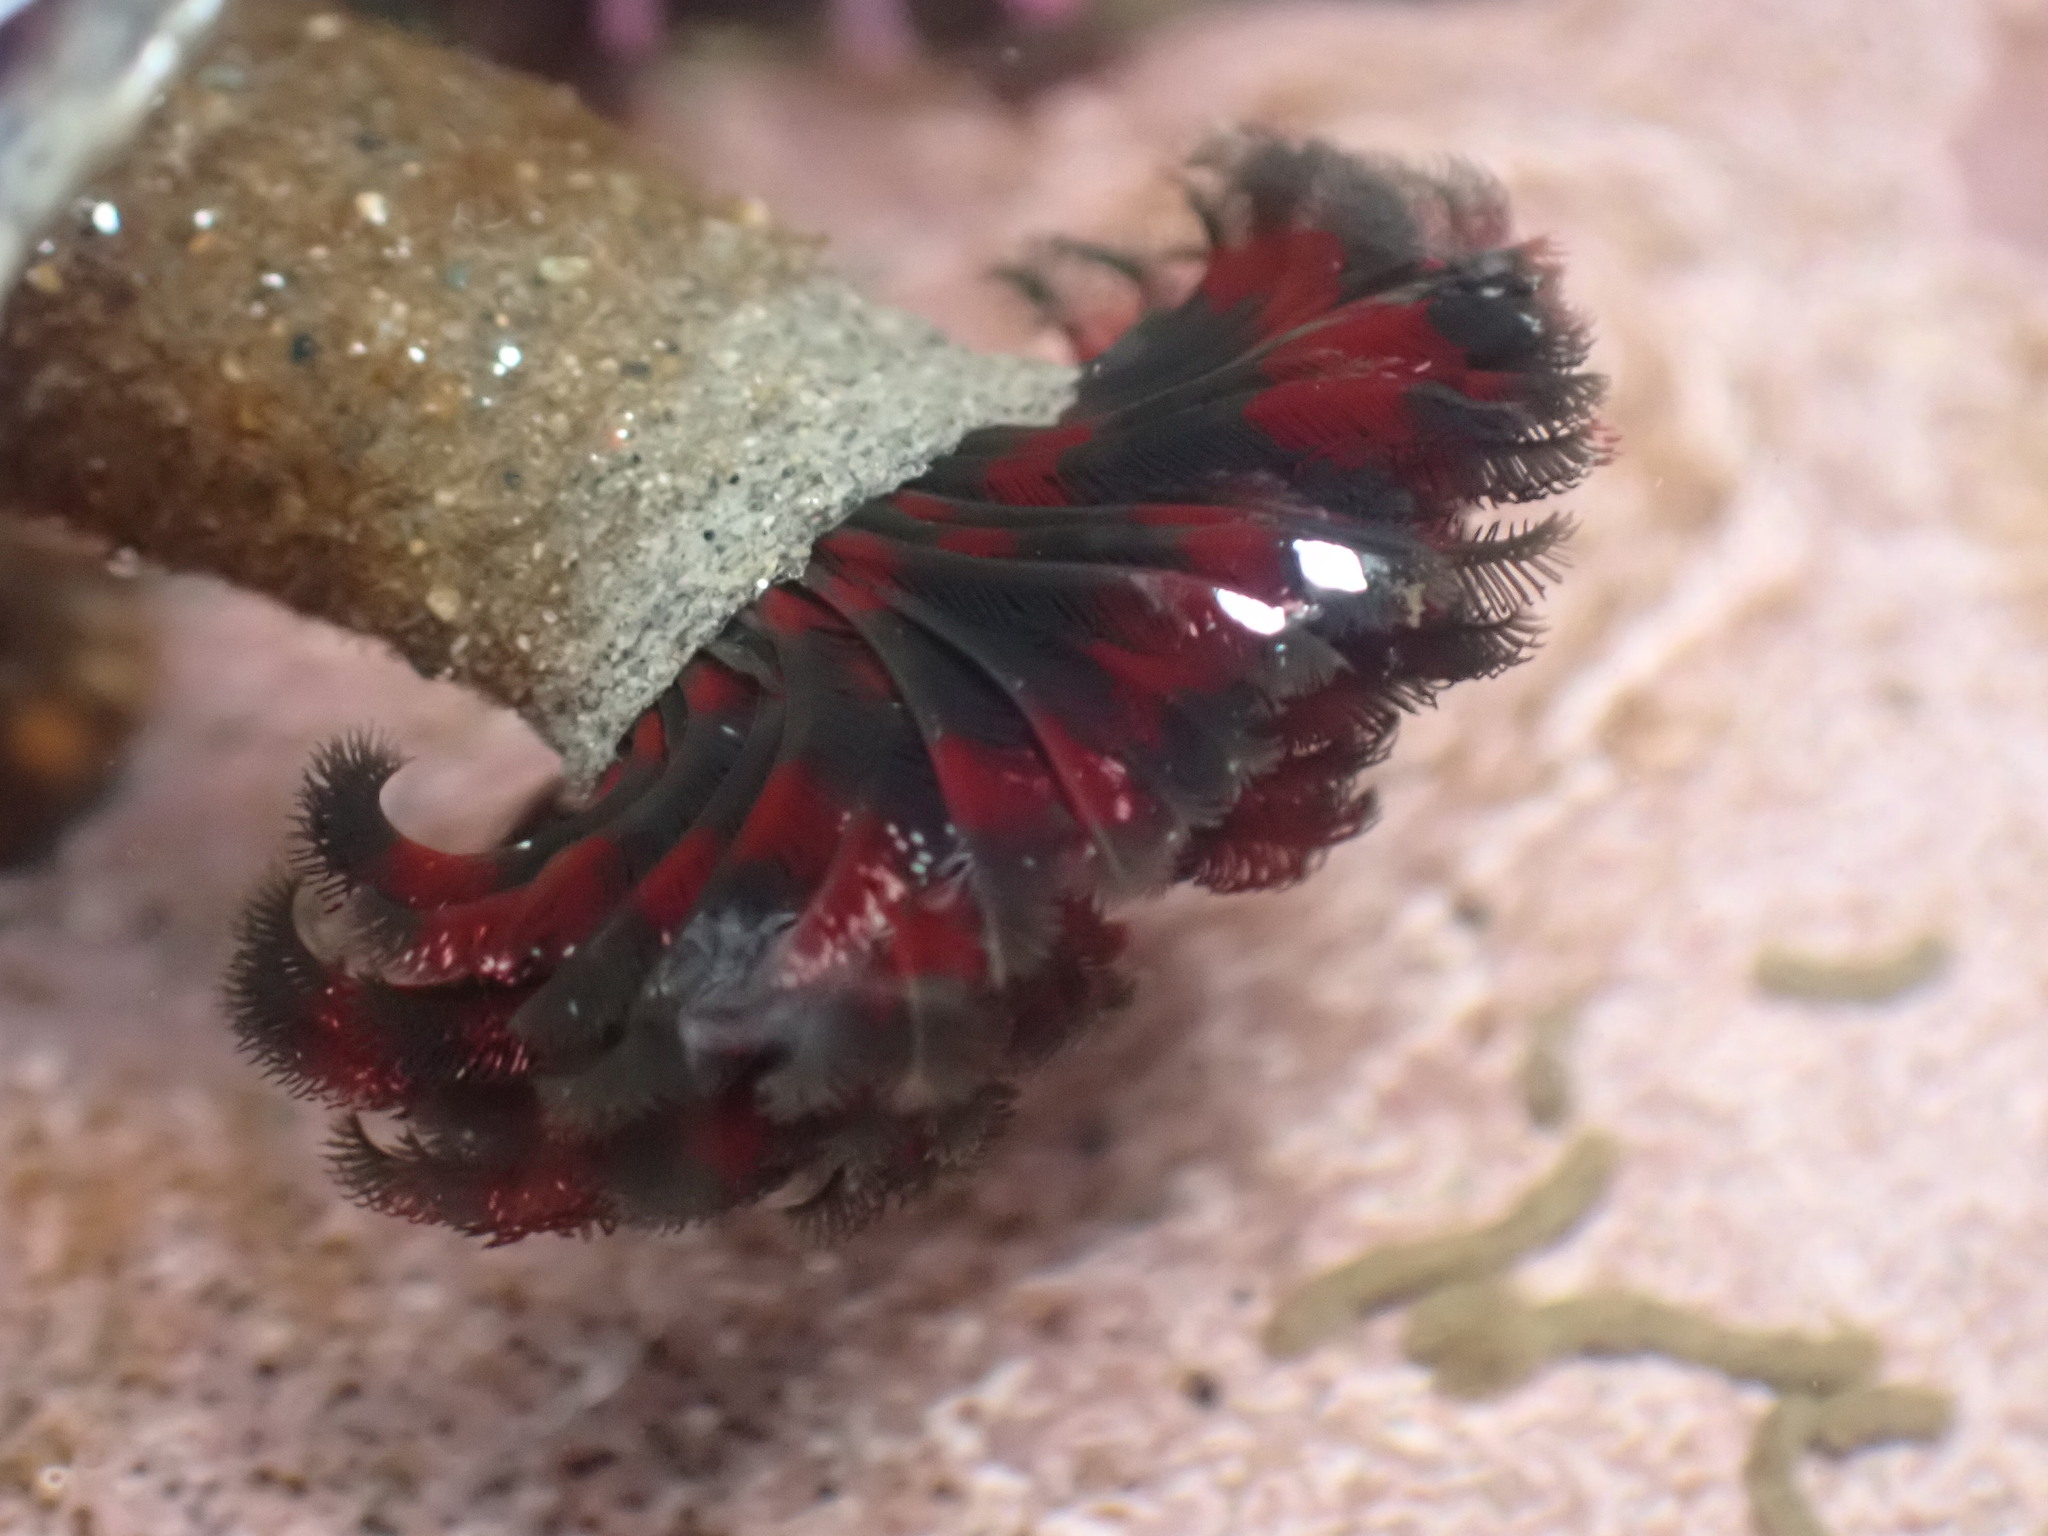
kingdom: Animalia
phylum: Annelida
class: Polychaeta
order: Sabellida
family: Sabellidae
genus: Eudistylia
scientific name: Eudistylia vancouveri
